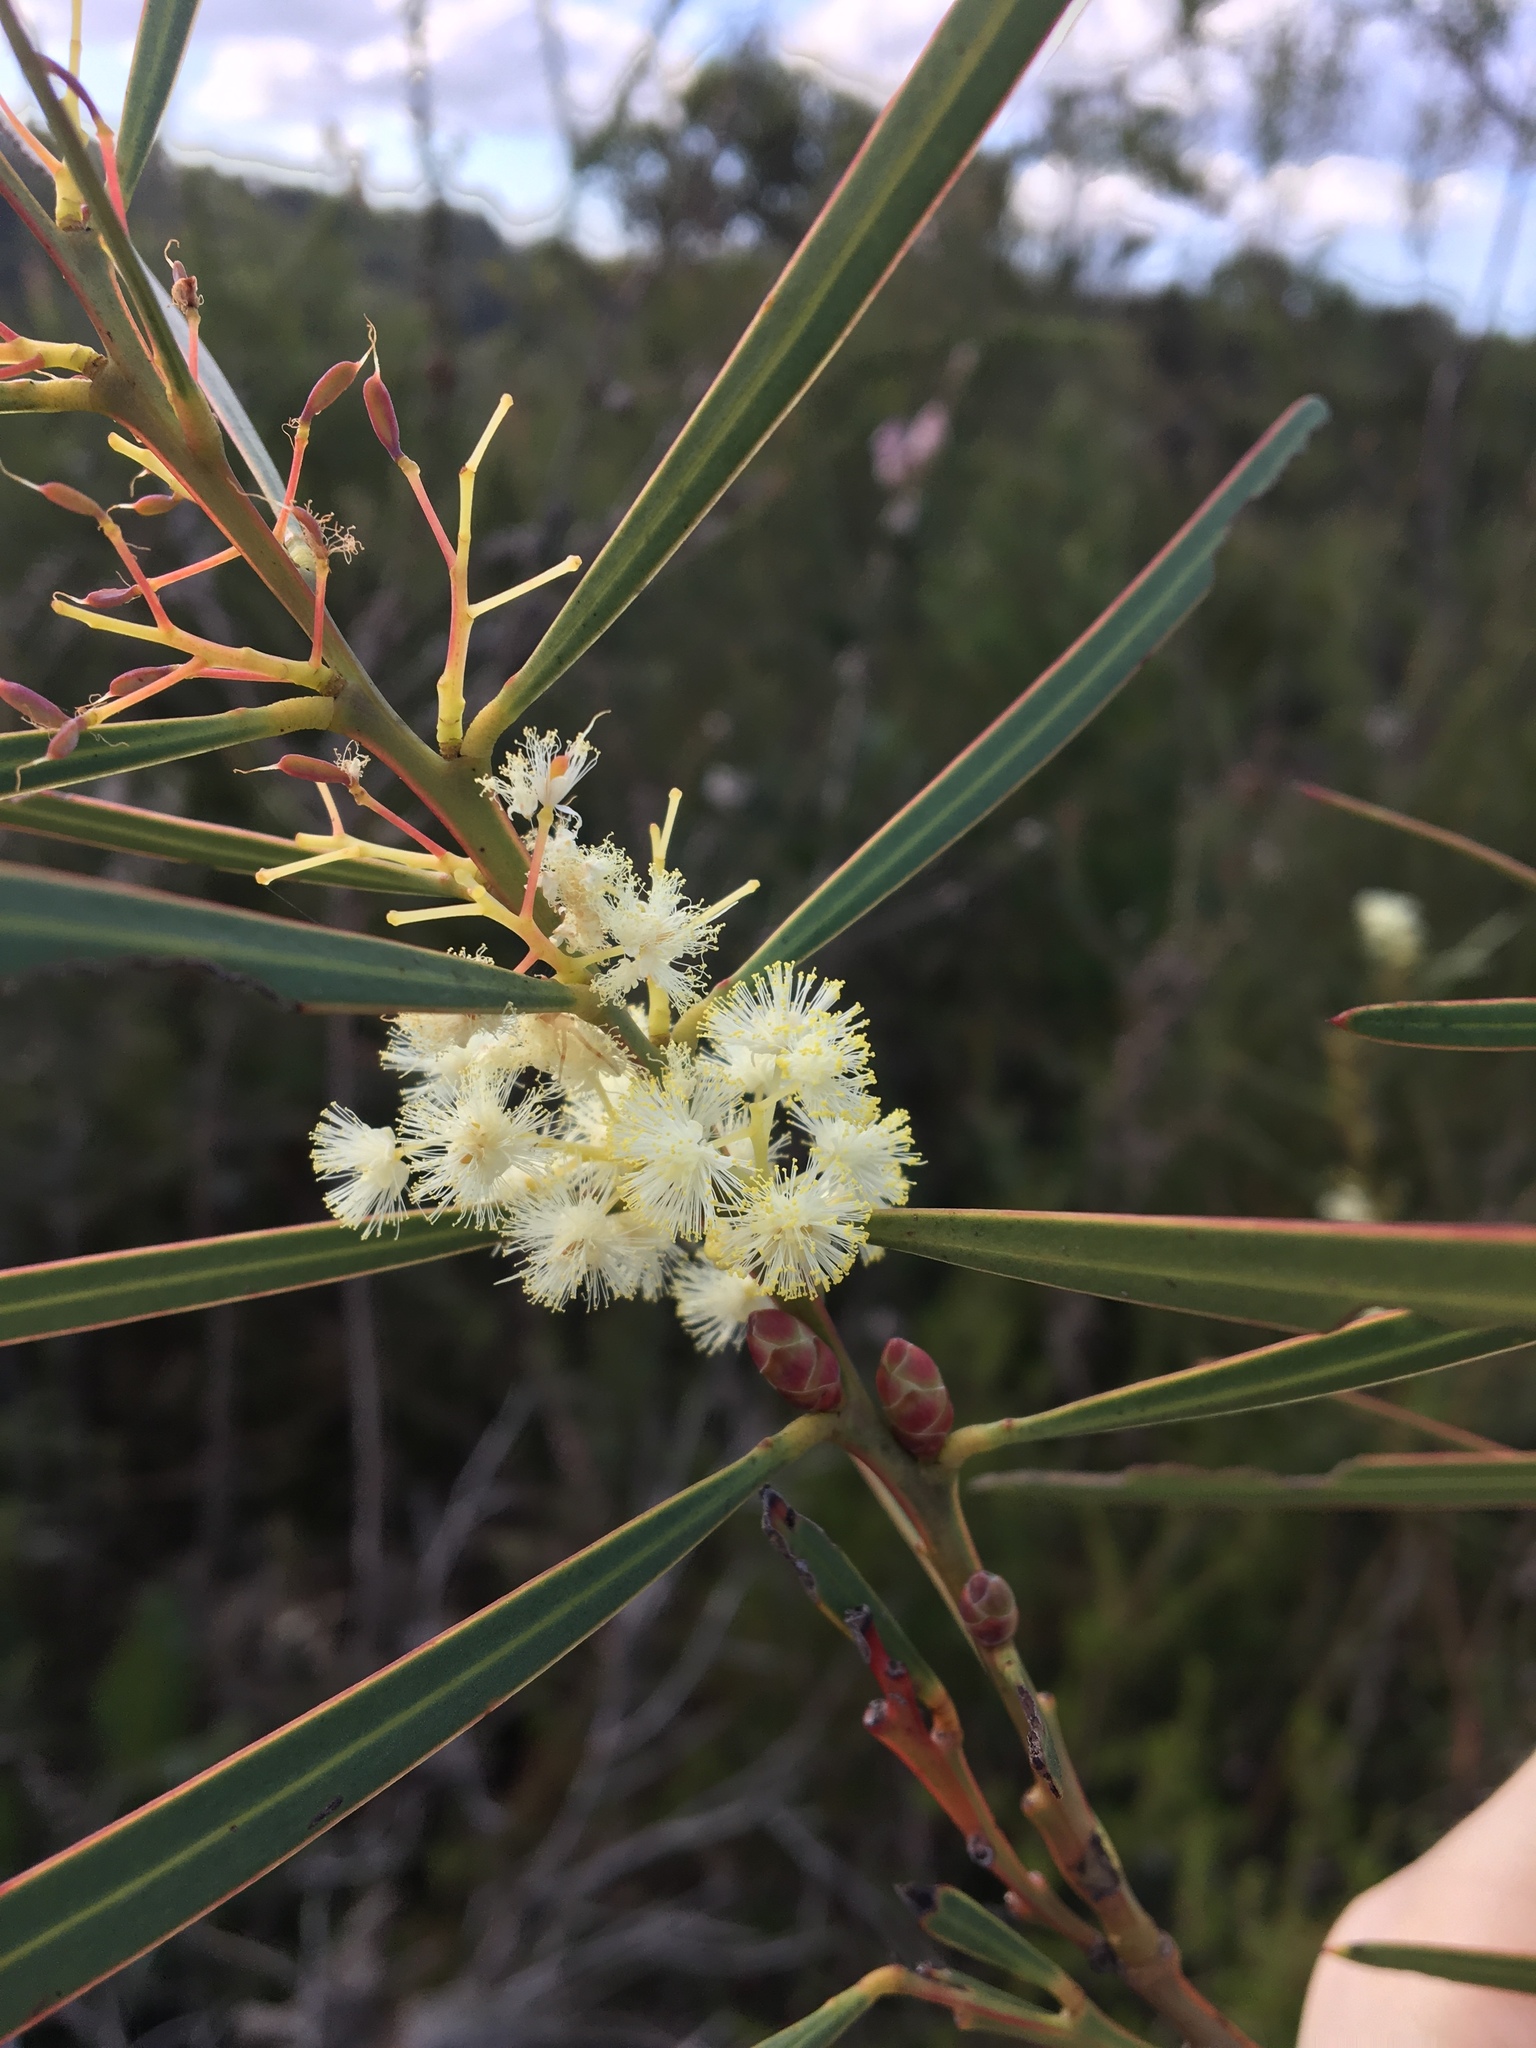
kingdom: Plantae
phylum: Tracheophyta
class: Magnoliopsida
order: Fabales
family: Fabaceae
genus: Acacia
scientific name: Acacia suaveolens
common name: Sweet acacia
